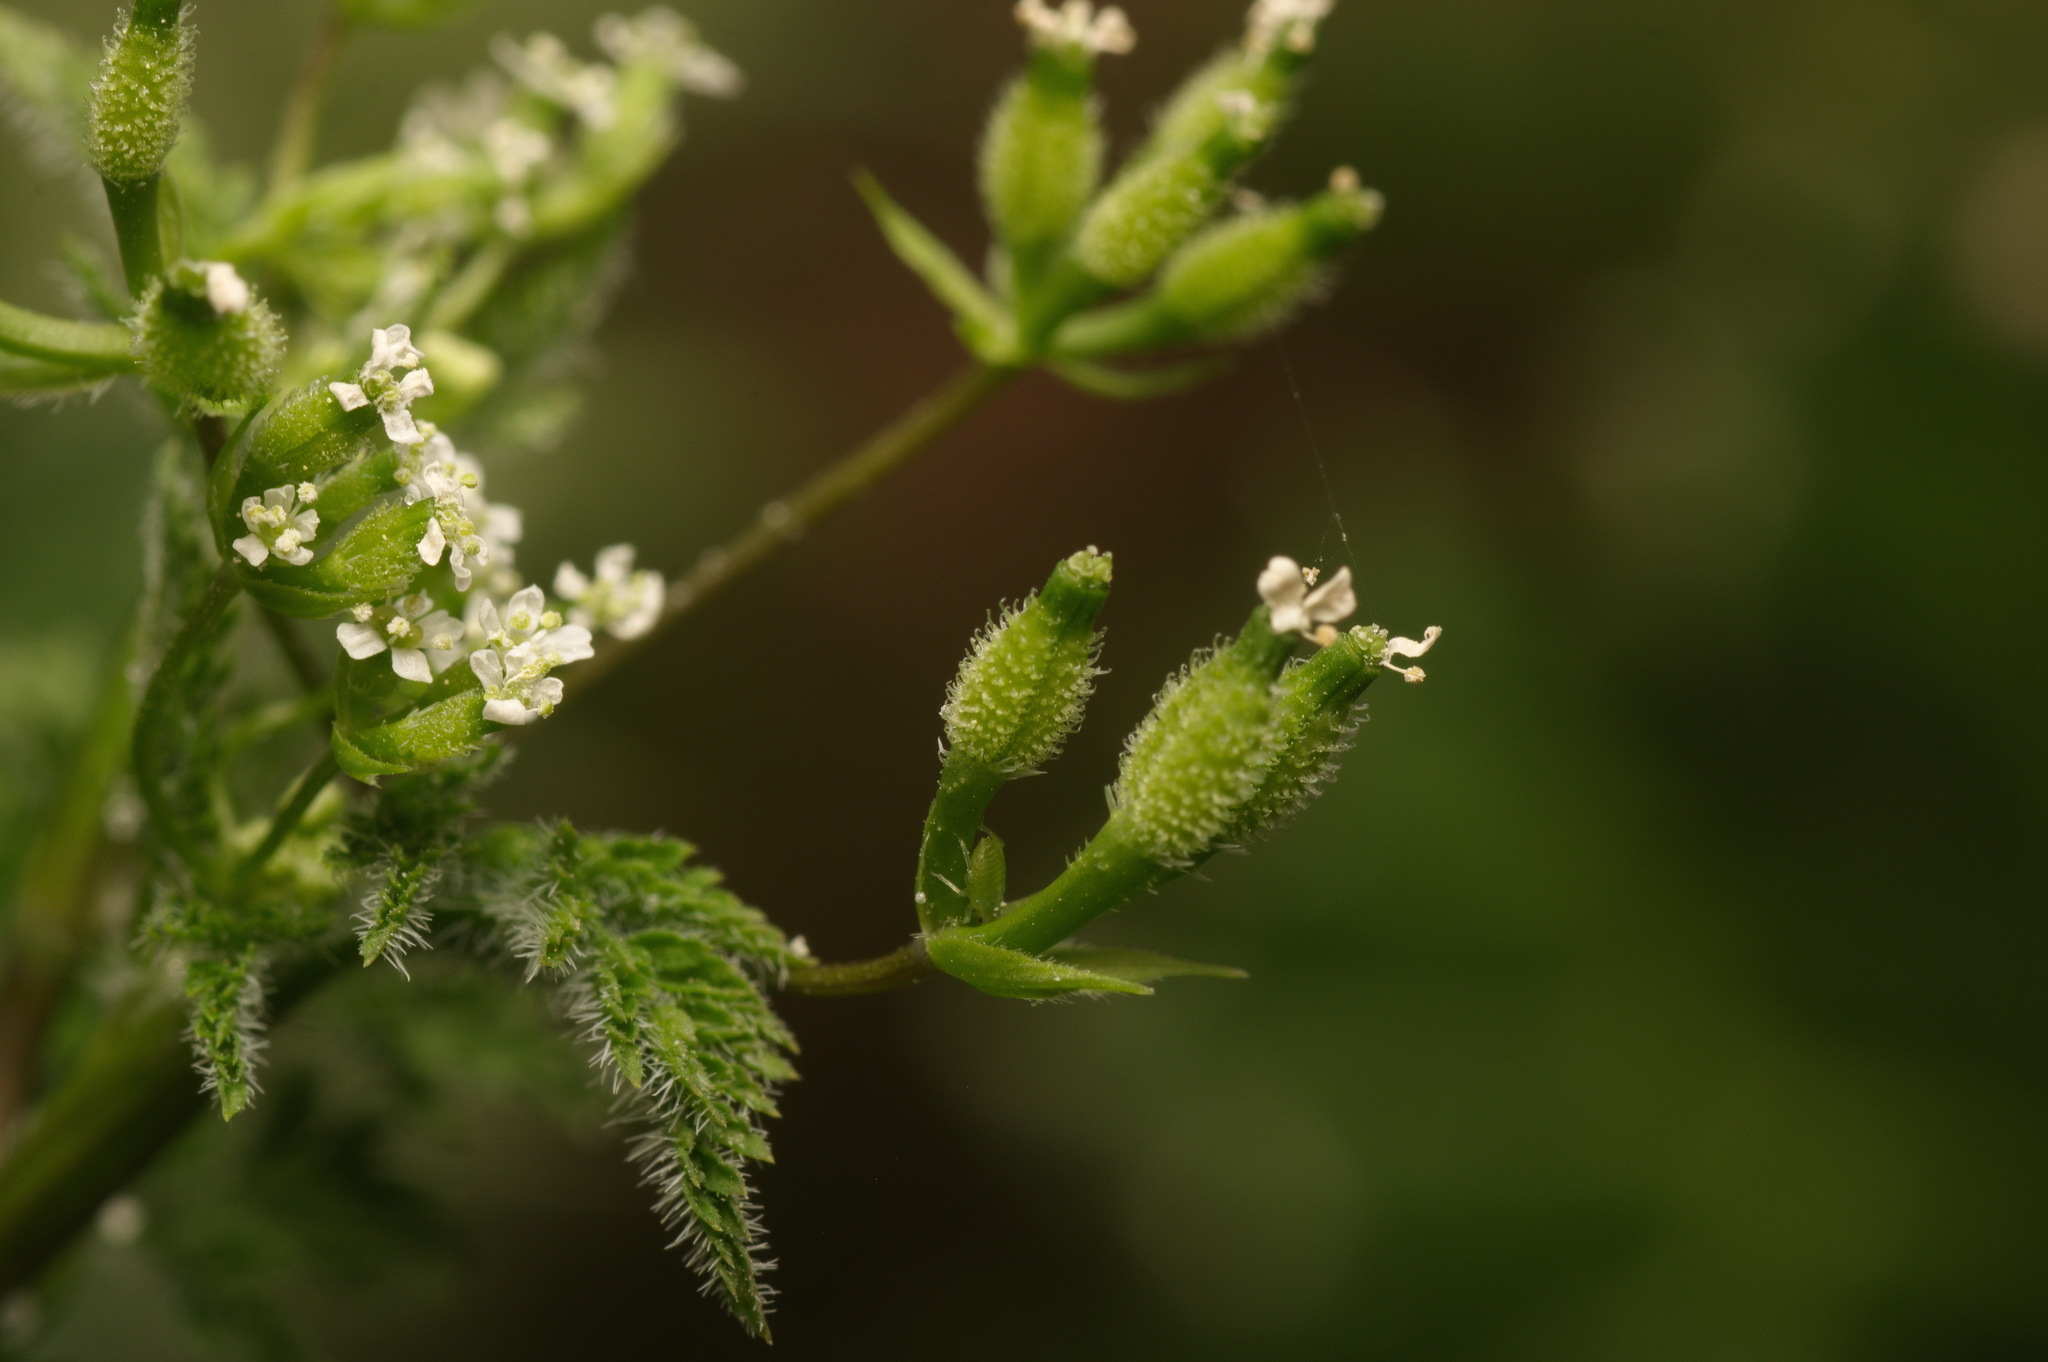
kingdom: Plantae
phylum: Tracheophyta
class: Magnoliopsida
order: Apiales
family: Apiaceae
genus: Anthriscus
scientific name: Anthriscus caucalis
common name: Bur chervil
